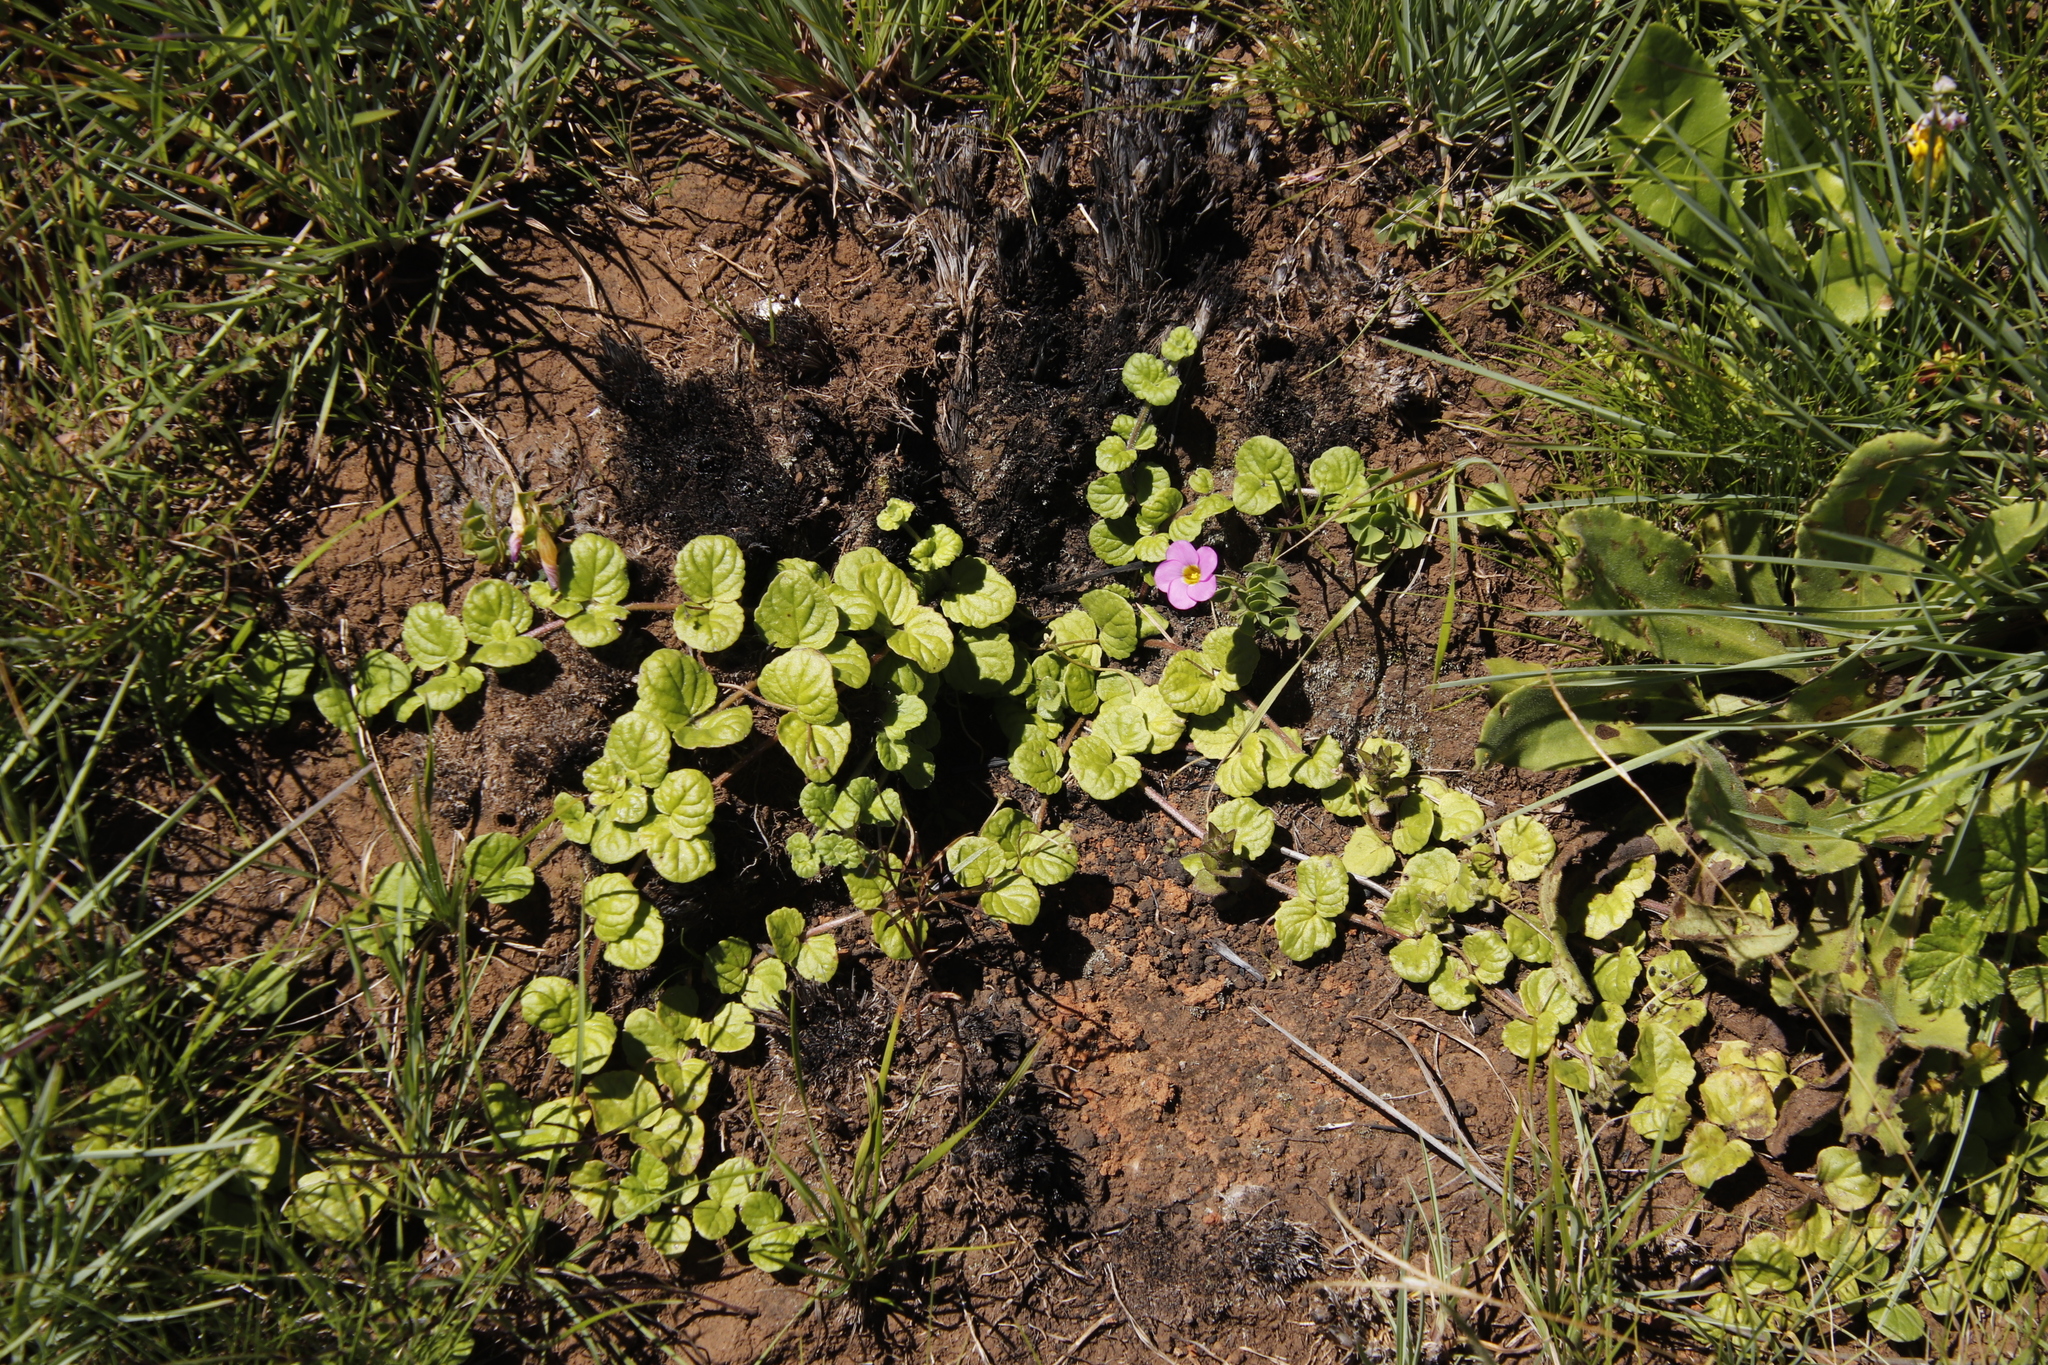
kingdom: Plantae
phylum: Tracheophyta
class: Magnoliopsida
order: Oxalidales
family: Oxalidaceae
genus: Oxalis
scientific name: Oxalis obliquifolia
